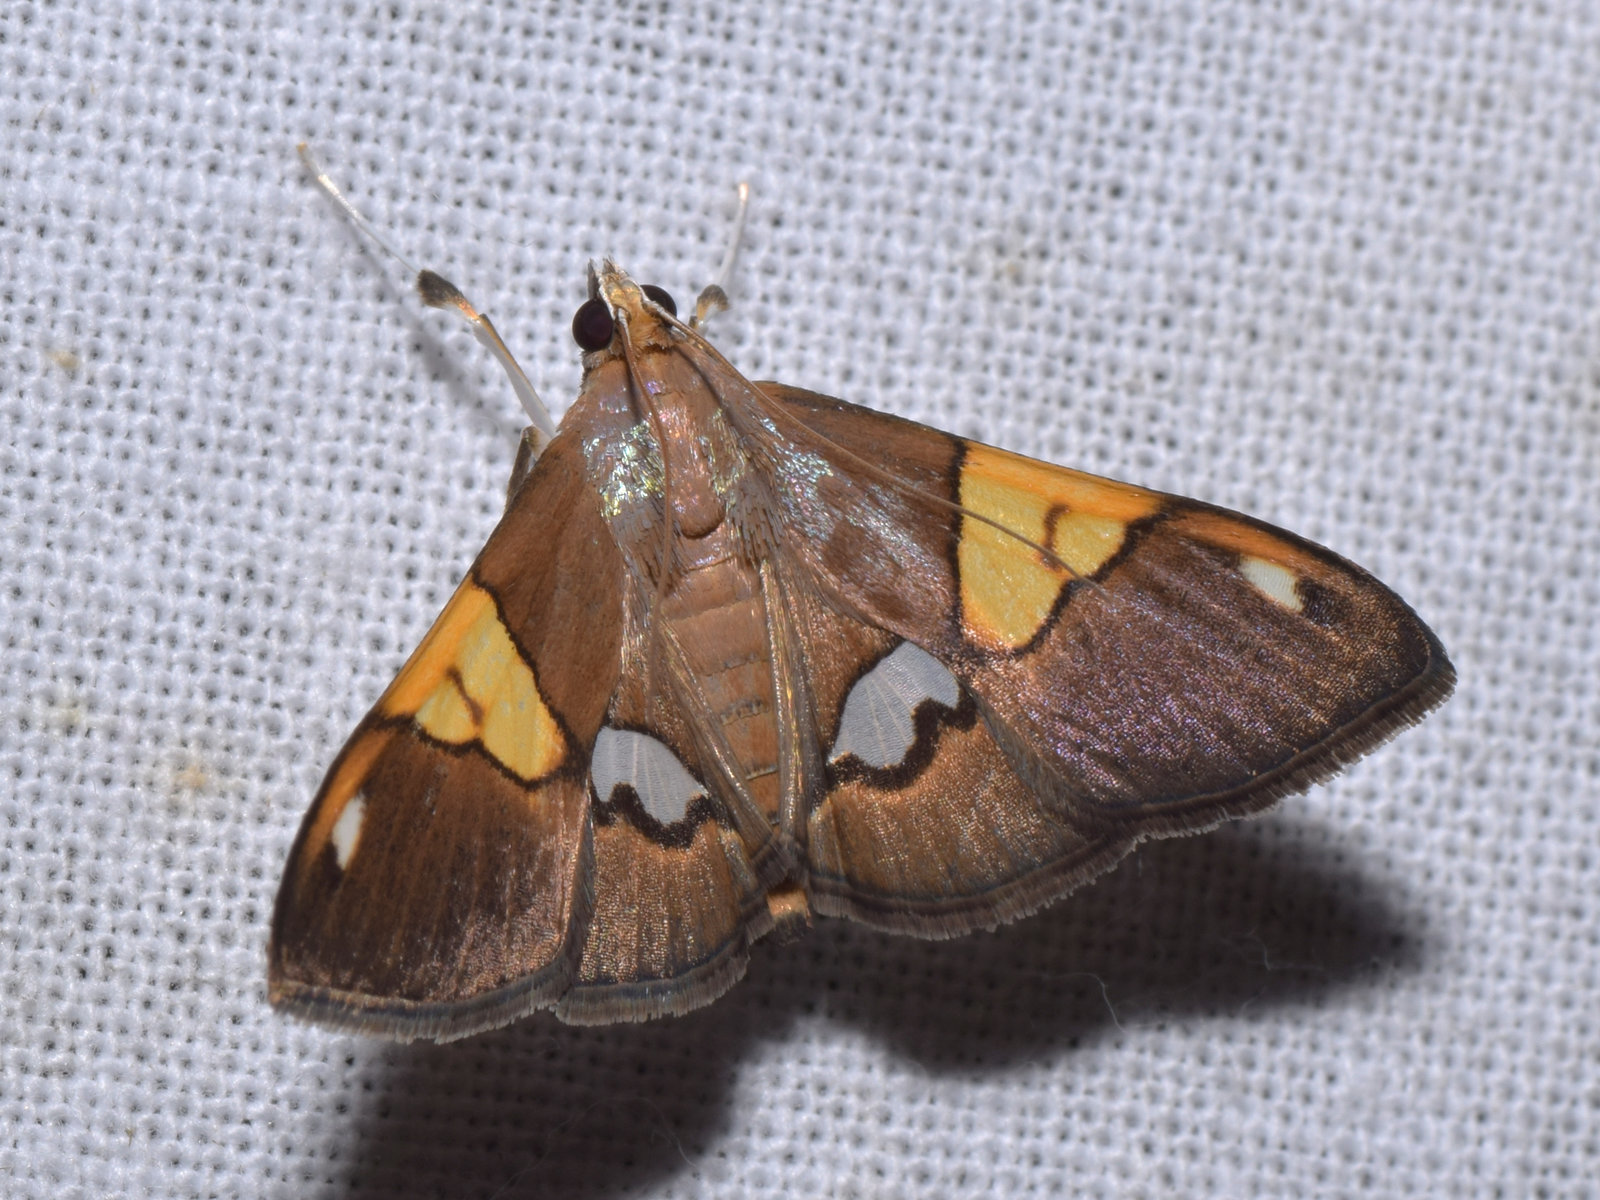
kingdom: Animalia
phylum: Arthropoda
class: Insecta
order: Lepidoptera
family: Crambidae
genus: Heterocnephes
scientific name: Heterocnephes lymphatalis
